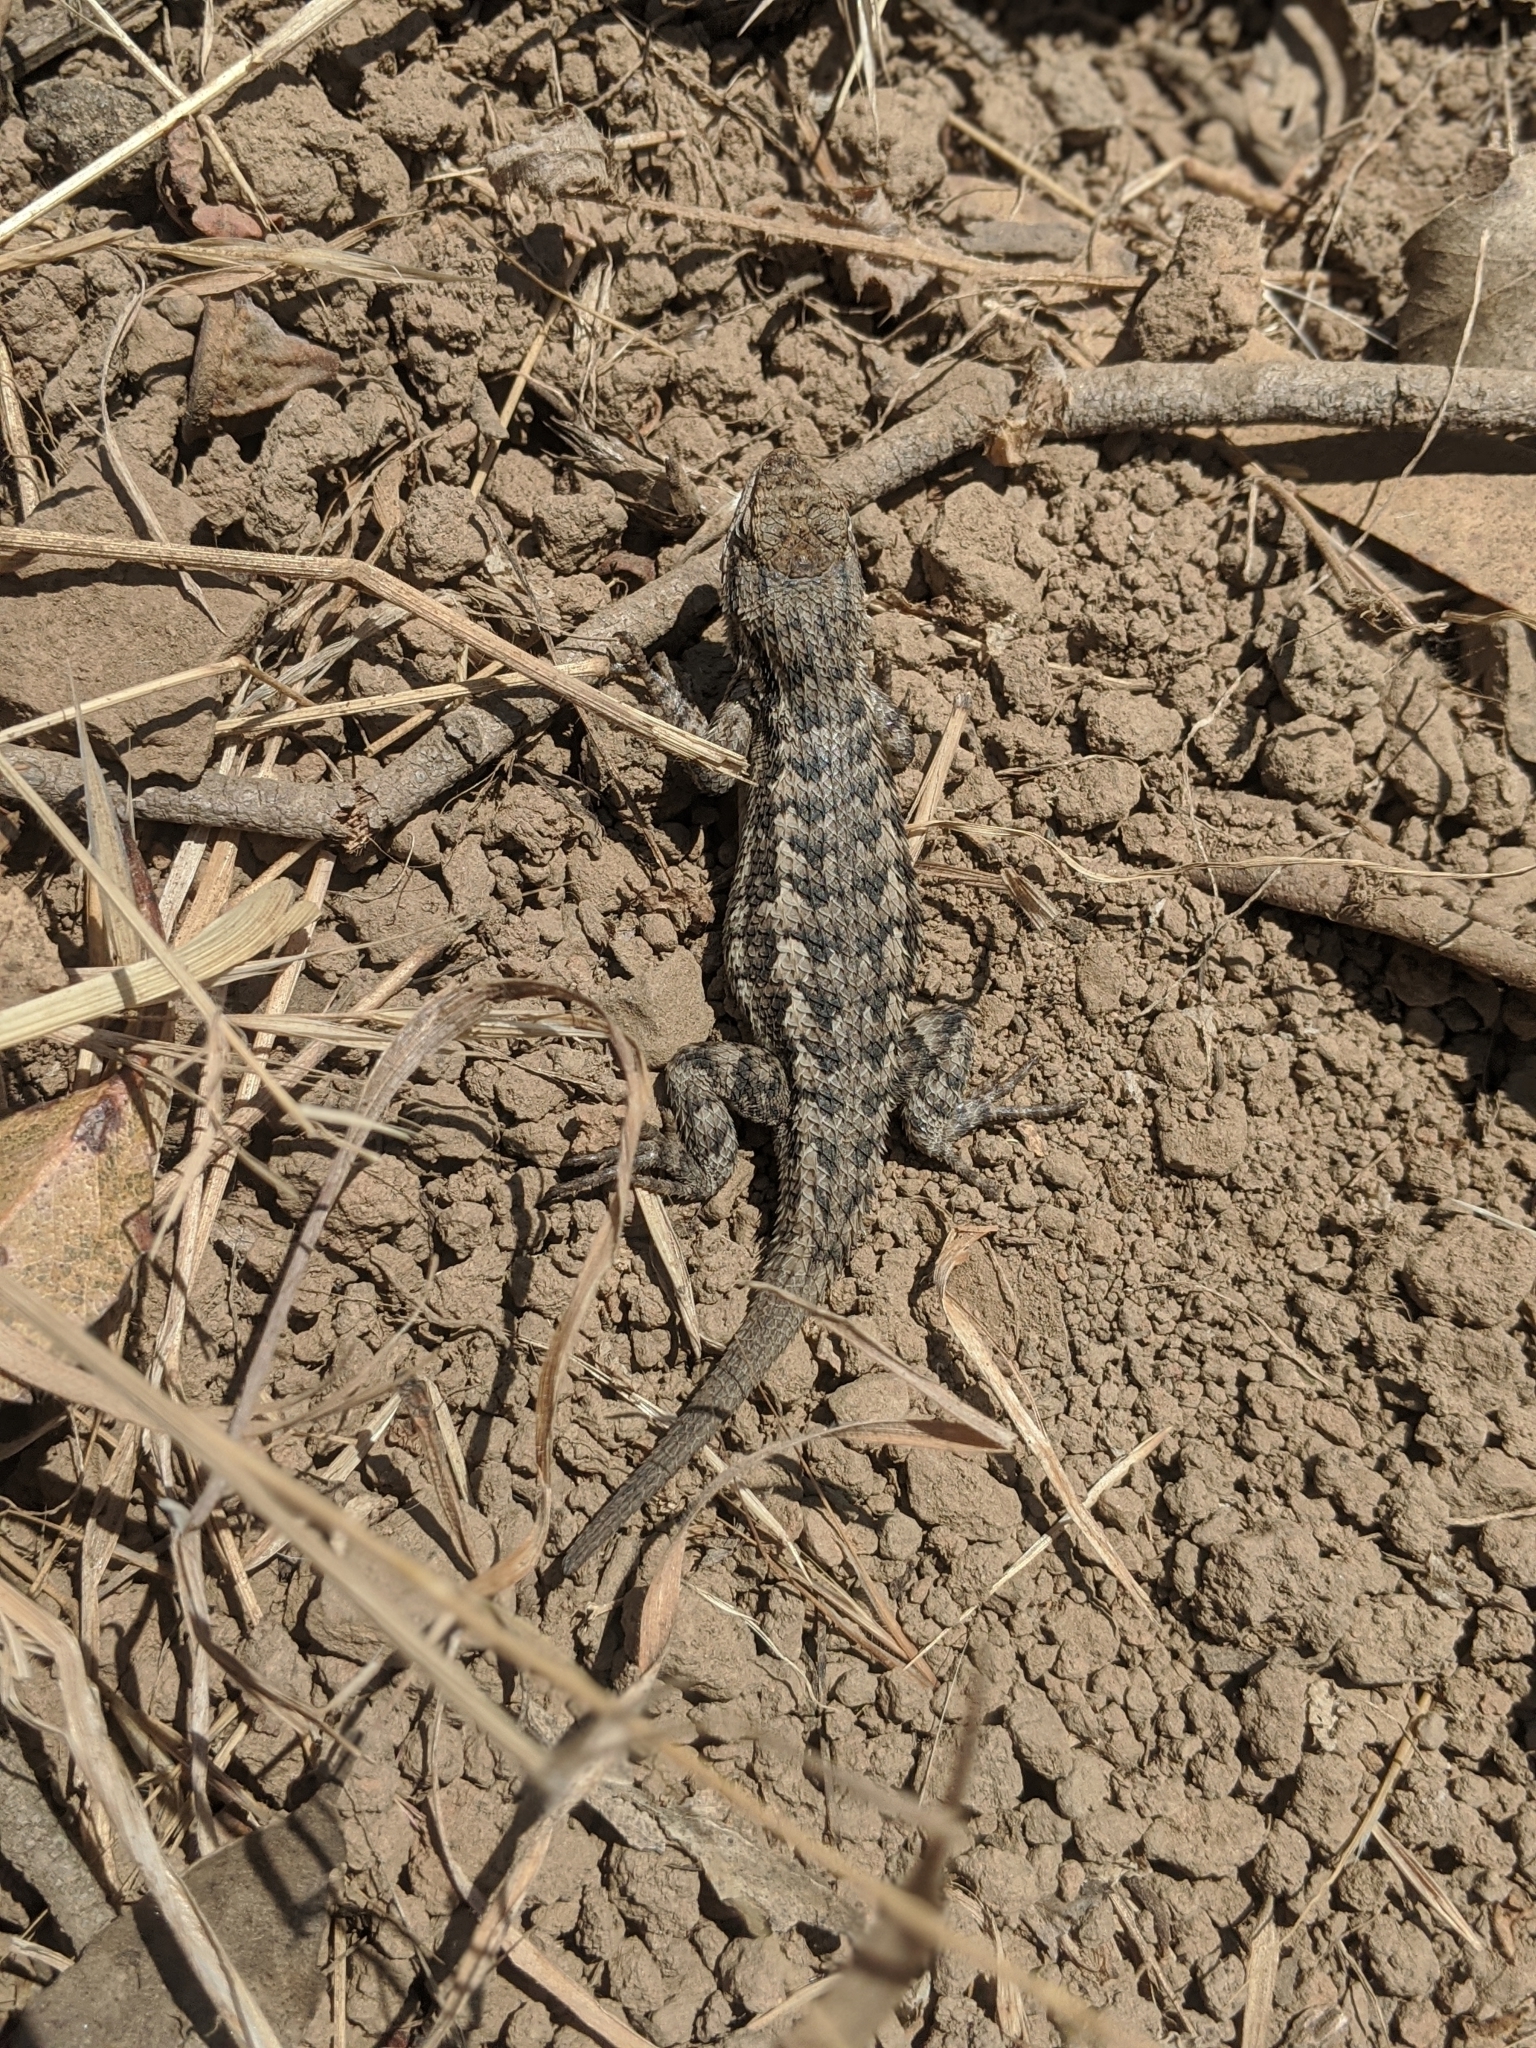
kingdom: Animalia
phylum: Chordata
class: Squamata
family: Phrynosomatidae
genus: Sceloporus
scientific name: Sceloporus occidentalis
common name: Western fence lizard
